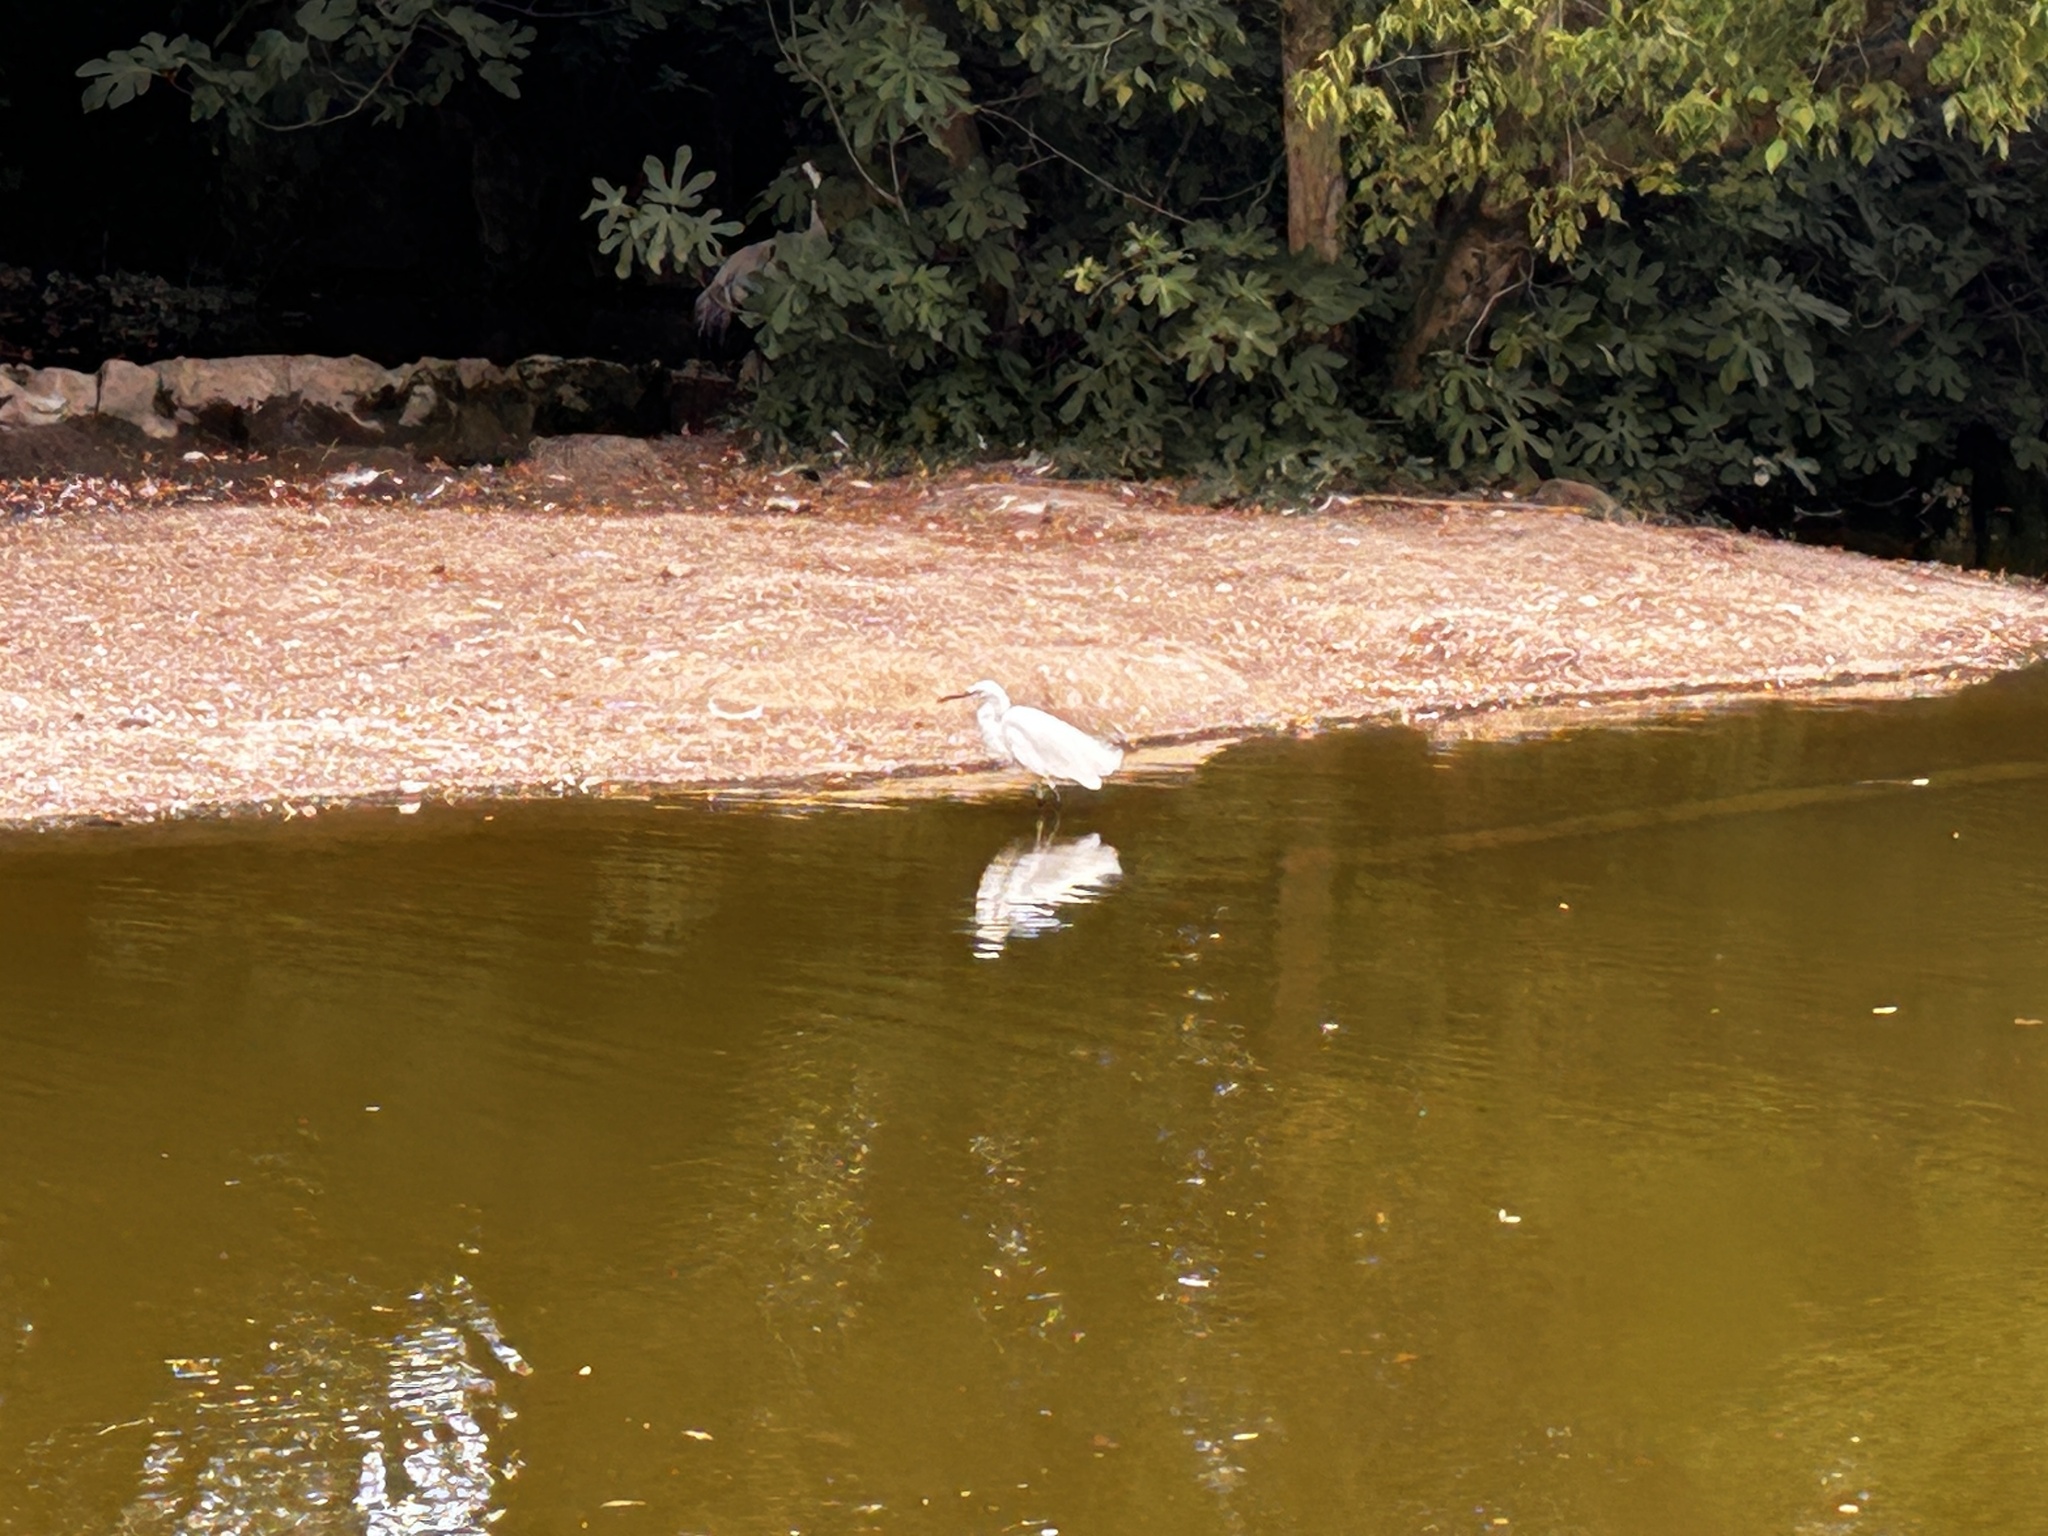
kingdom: Animalia
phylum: Chordata
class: Aves
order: Pelecaniformes
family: Ardeidae
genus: Egretta
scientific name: Egretta garzetta
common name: Little egret
